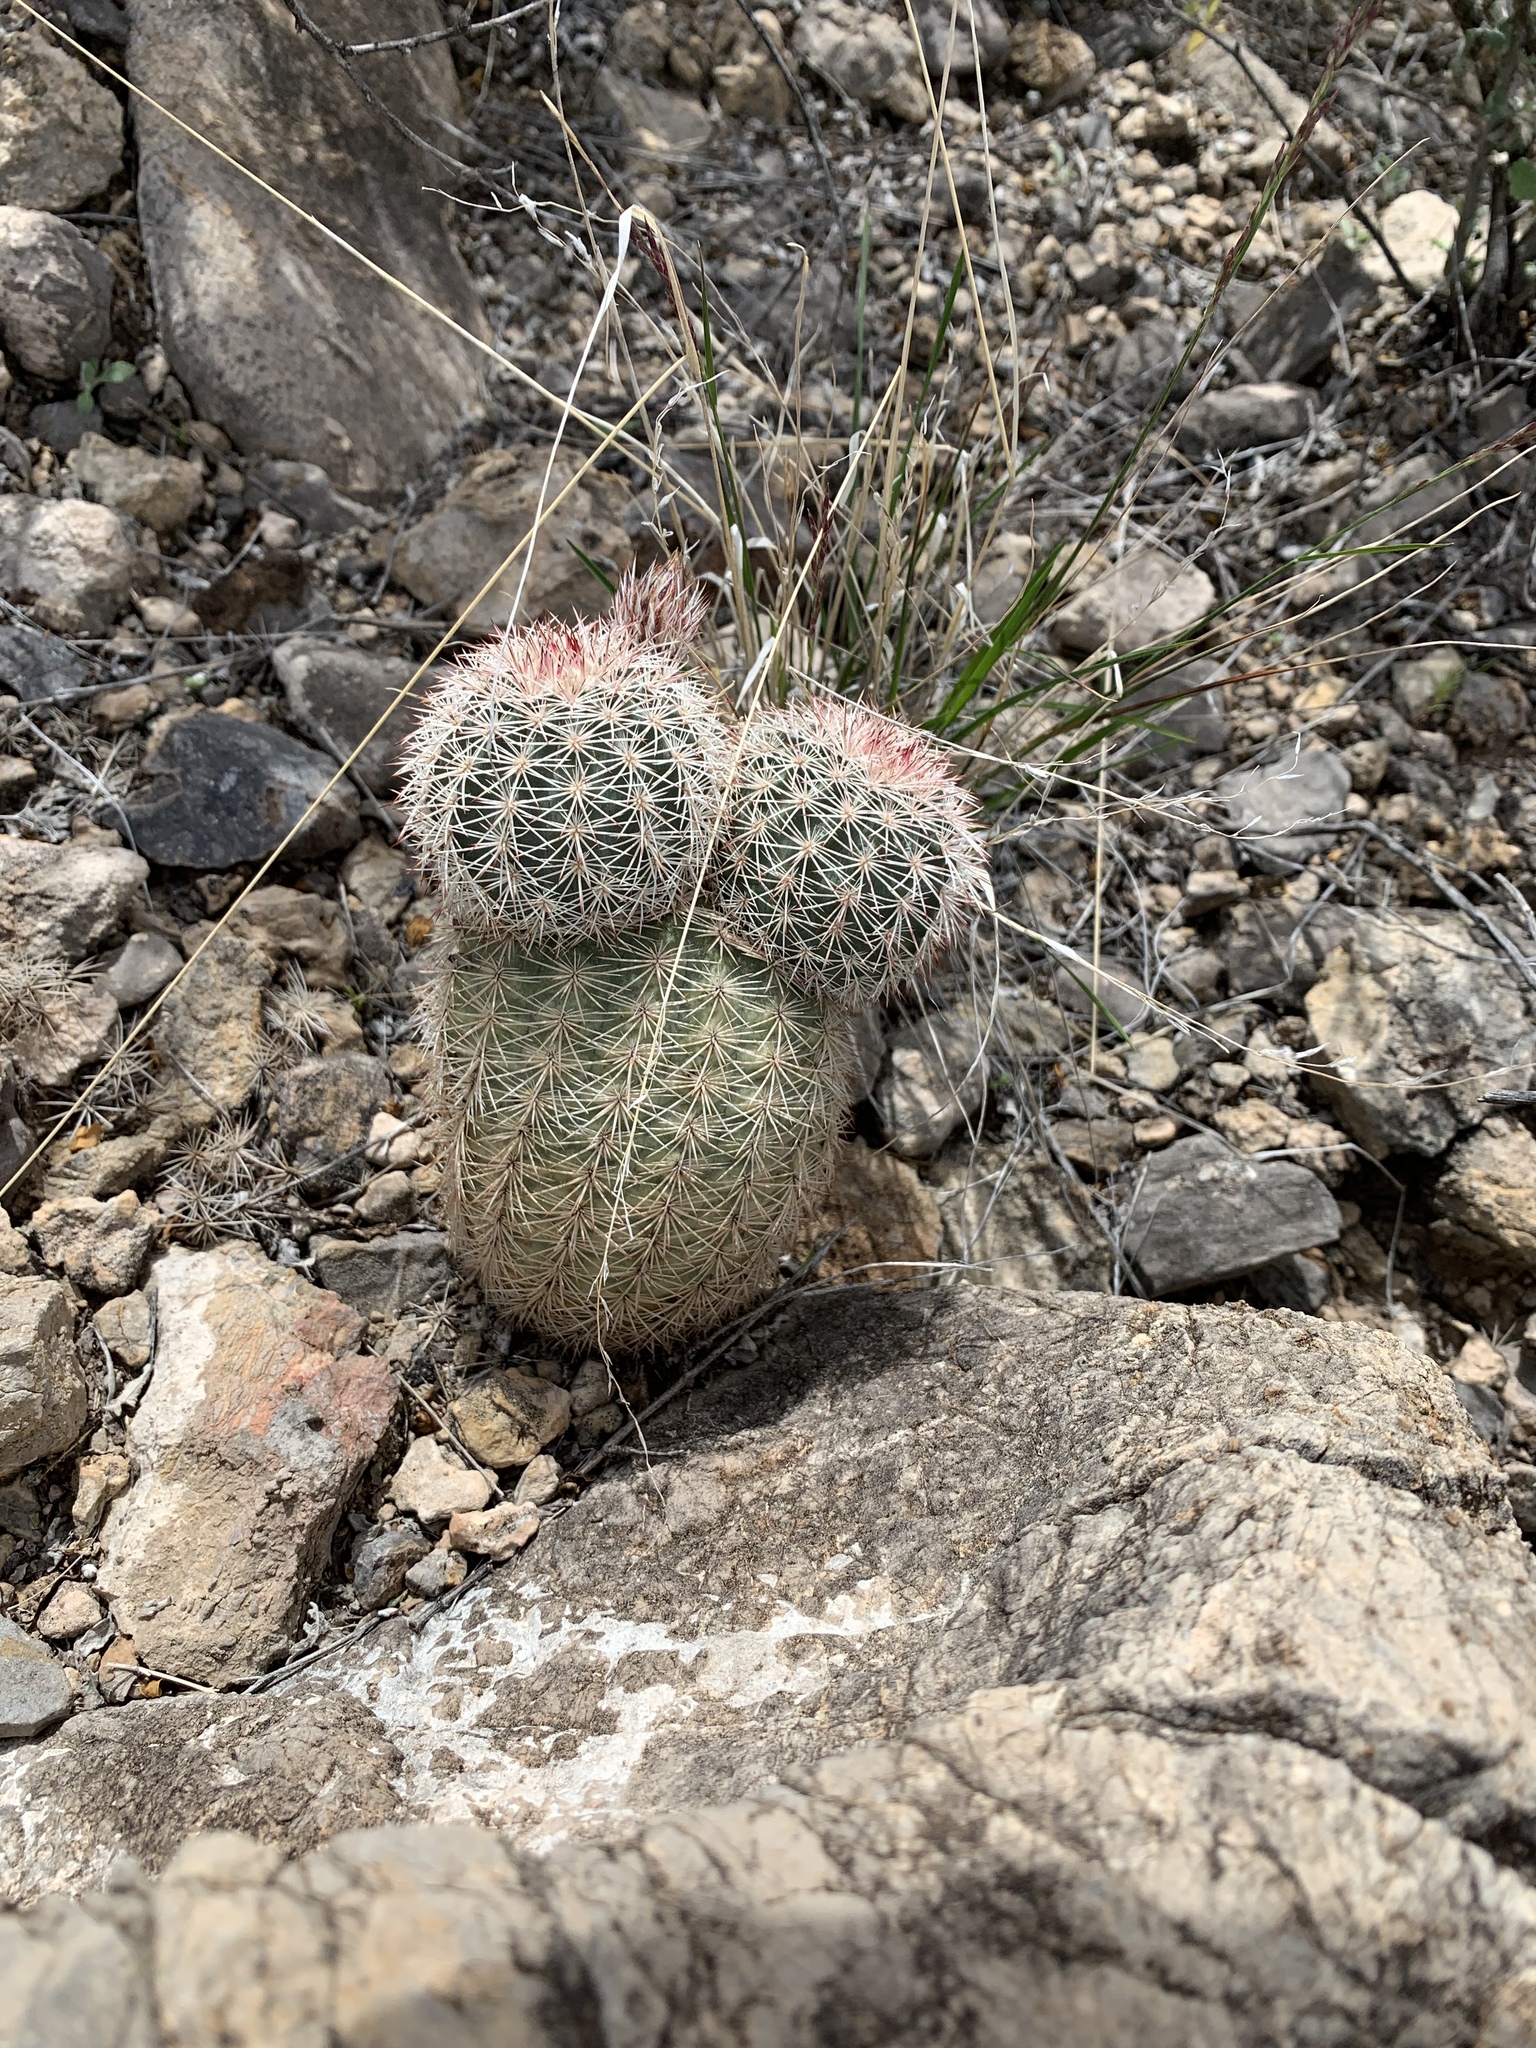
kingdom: Plantae
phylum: Tracheophyta
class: Magnoliopsida
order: Caryophyllales
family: Cactaceae
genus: Echinocereus
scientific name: Echinocereus dasyacanthus
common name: Spiny hedgehog cactus
